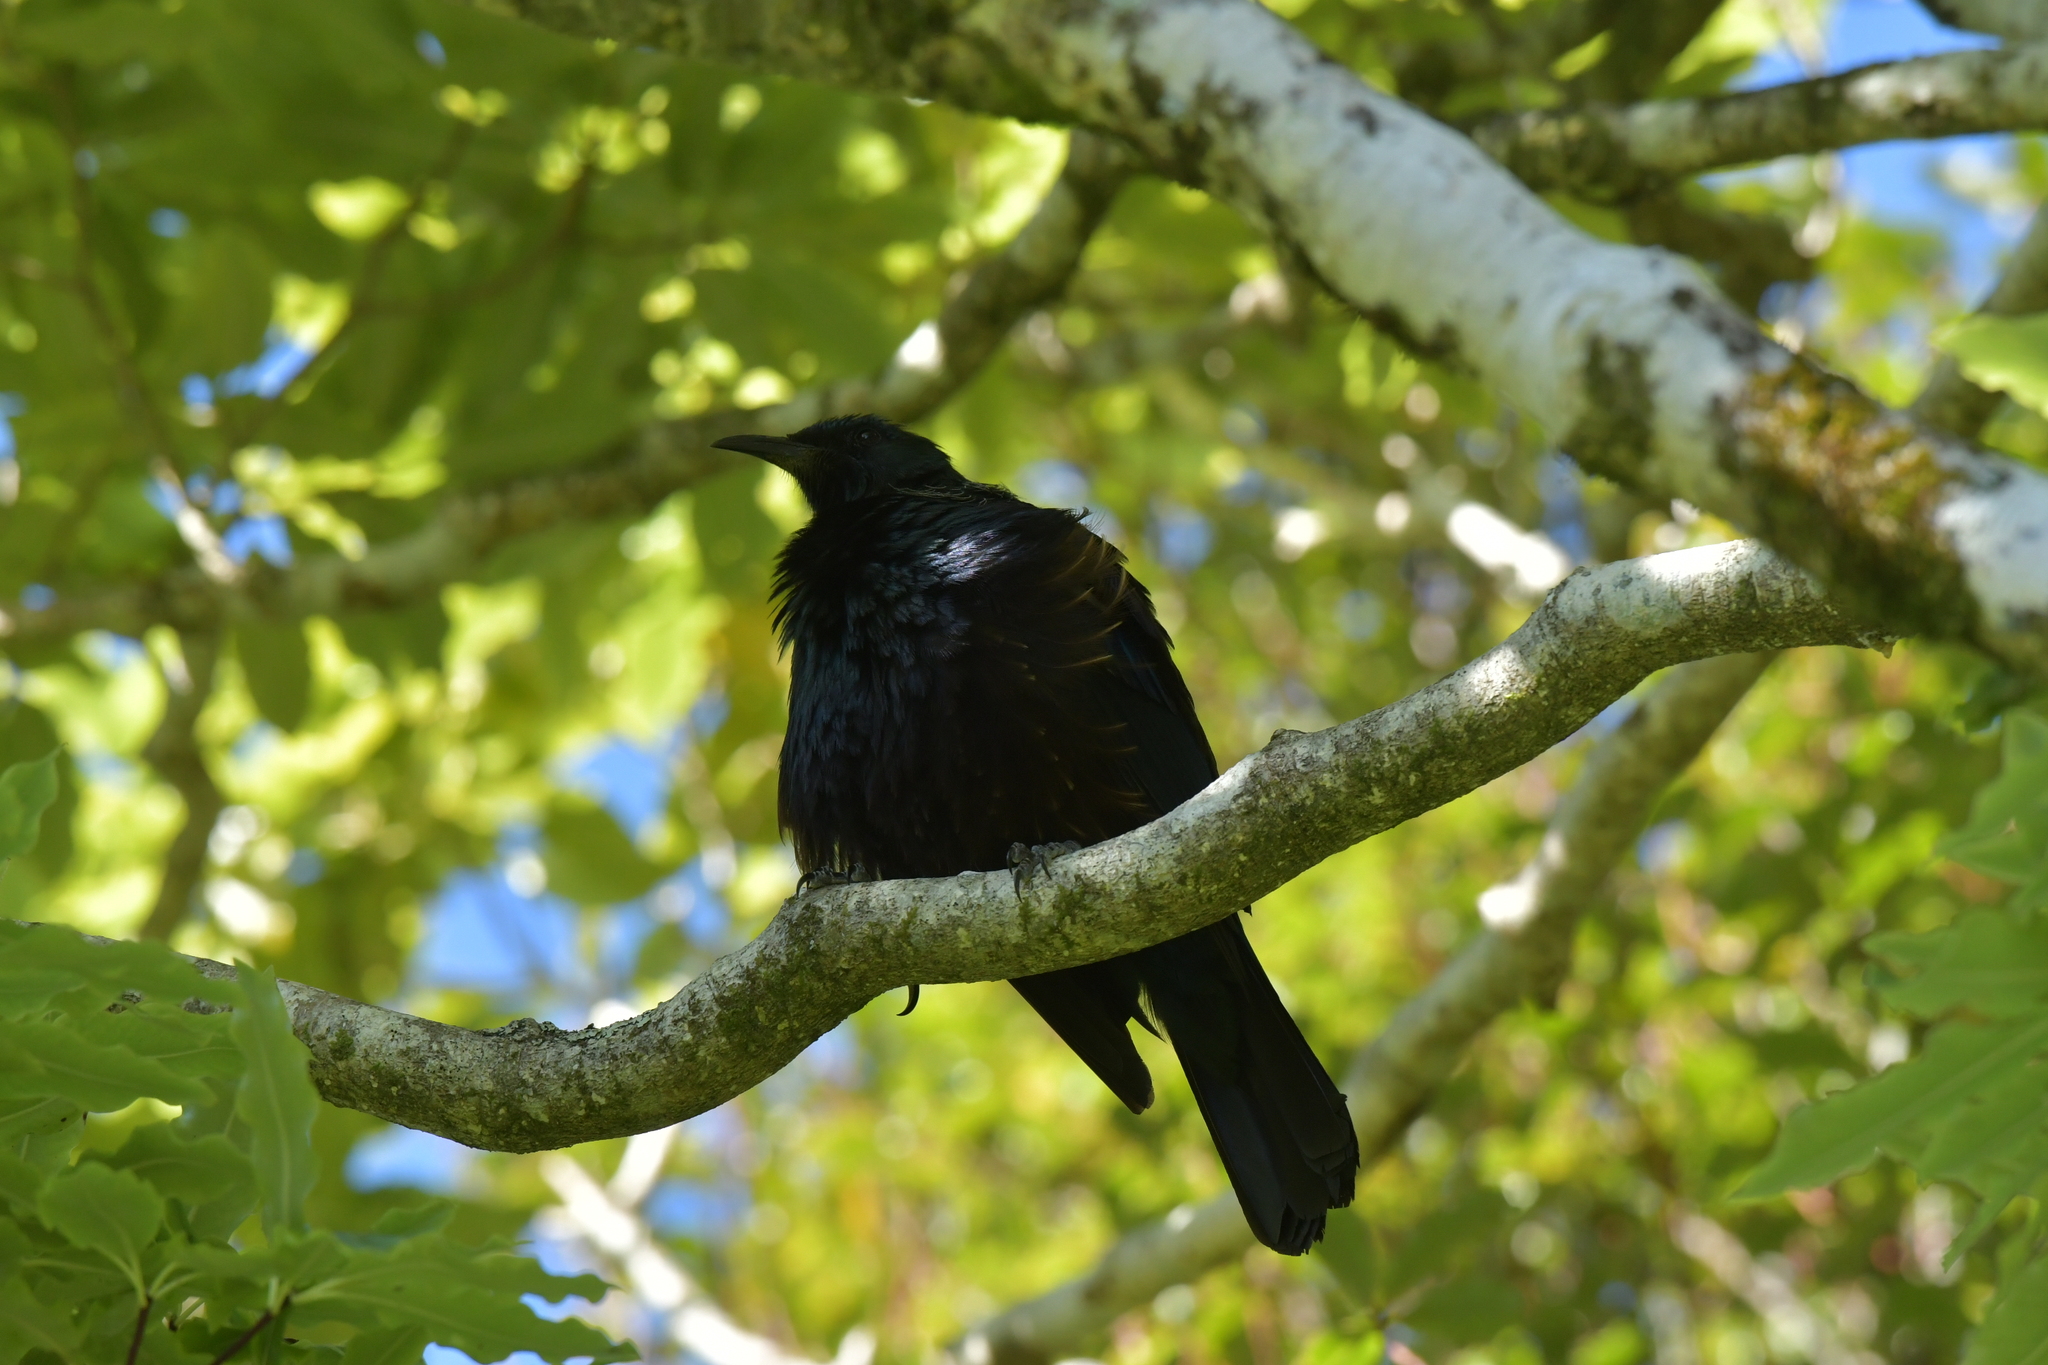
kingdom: Animalia
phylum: Chordata
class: Aves
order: Passeriformes
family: Meliphagidae
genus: Prosthemadera
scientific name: Prosthemadera novaeseelandiae
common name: Tui
